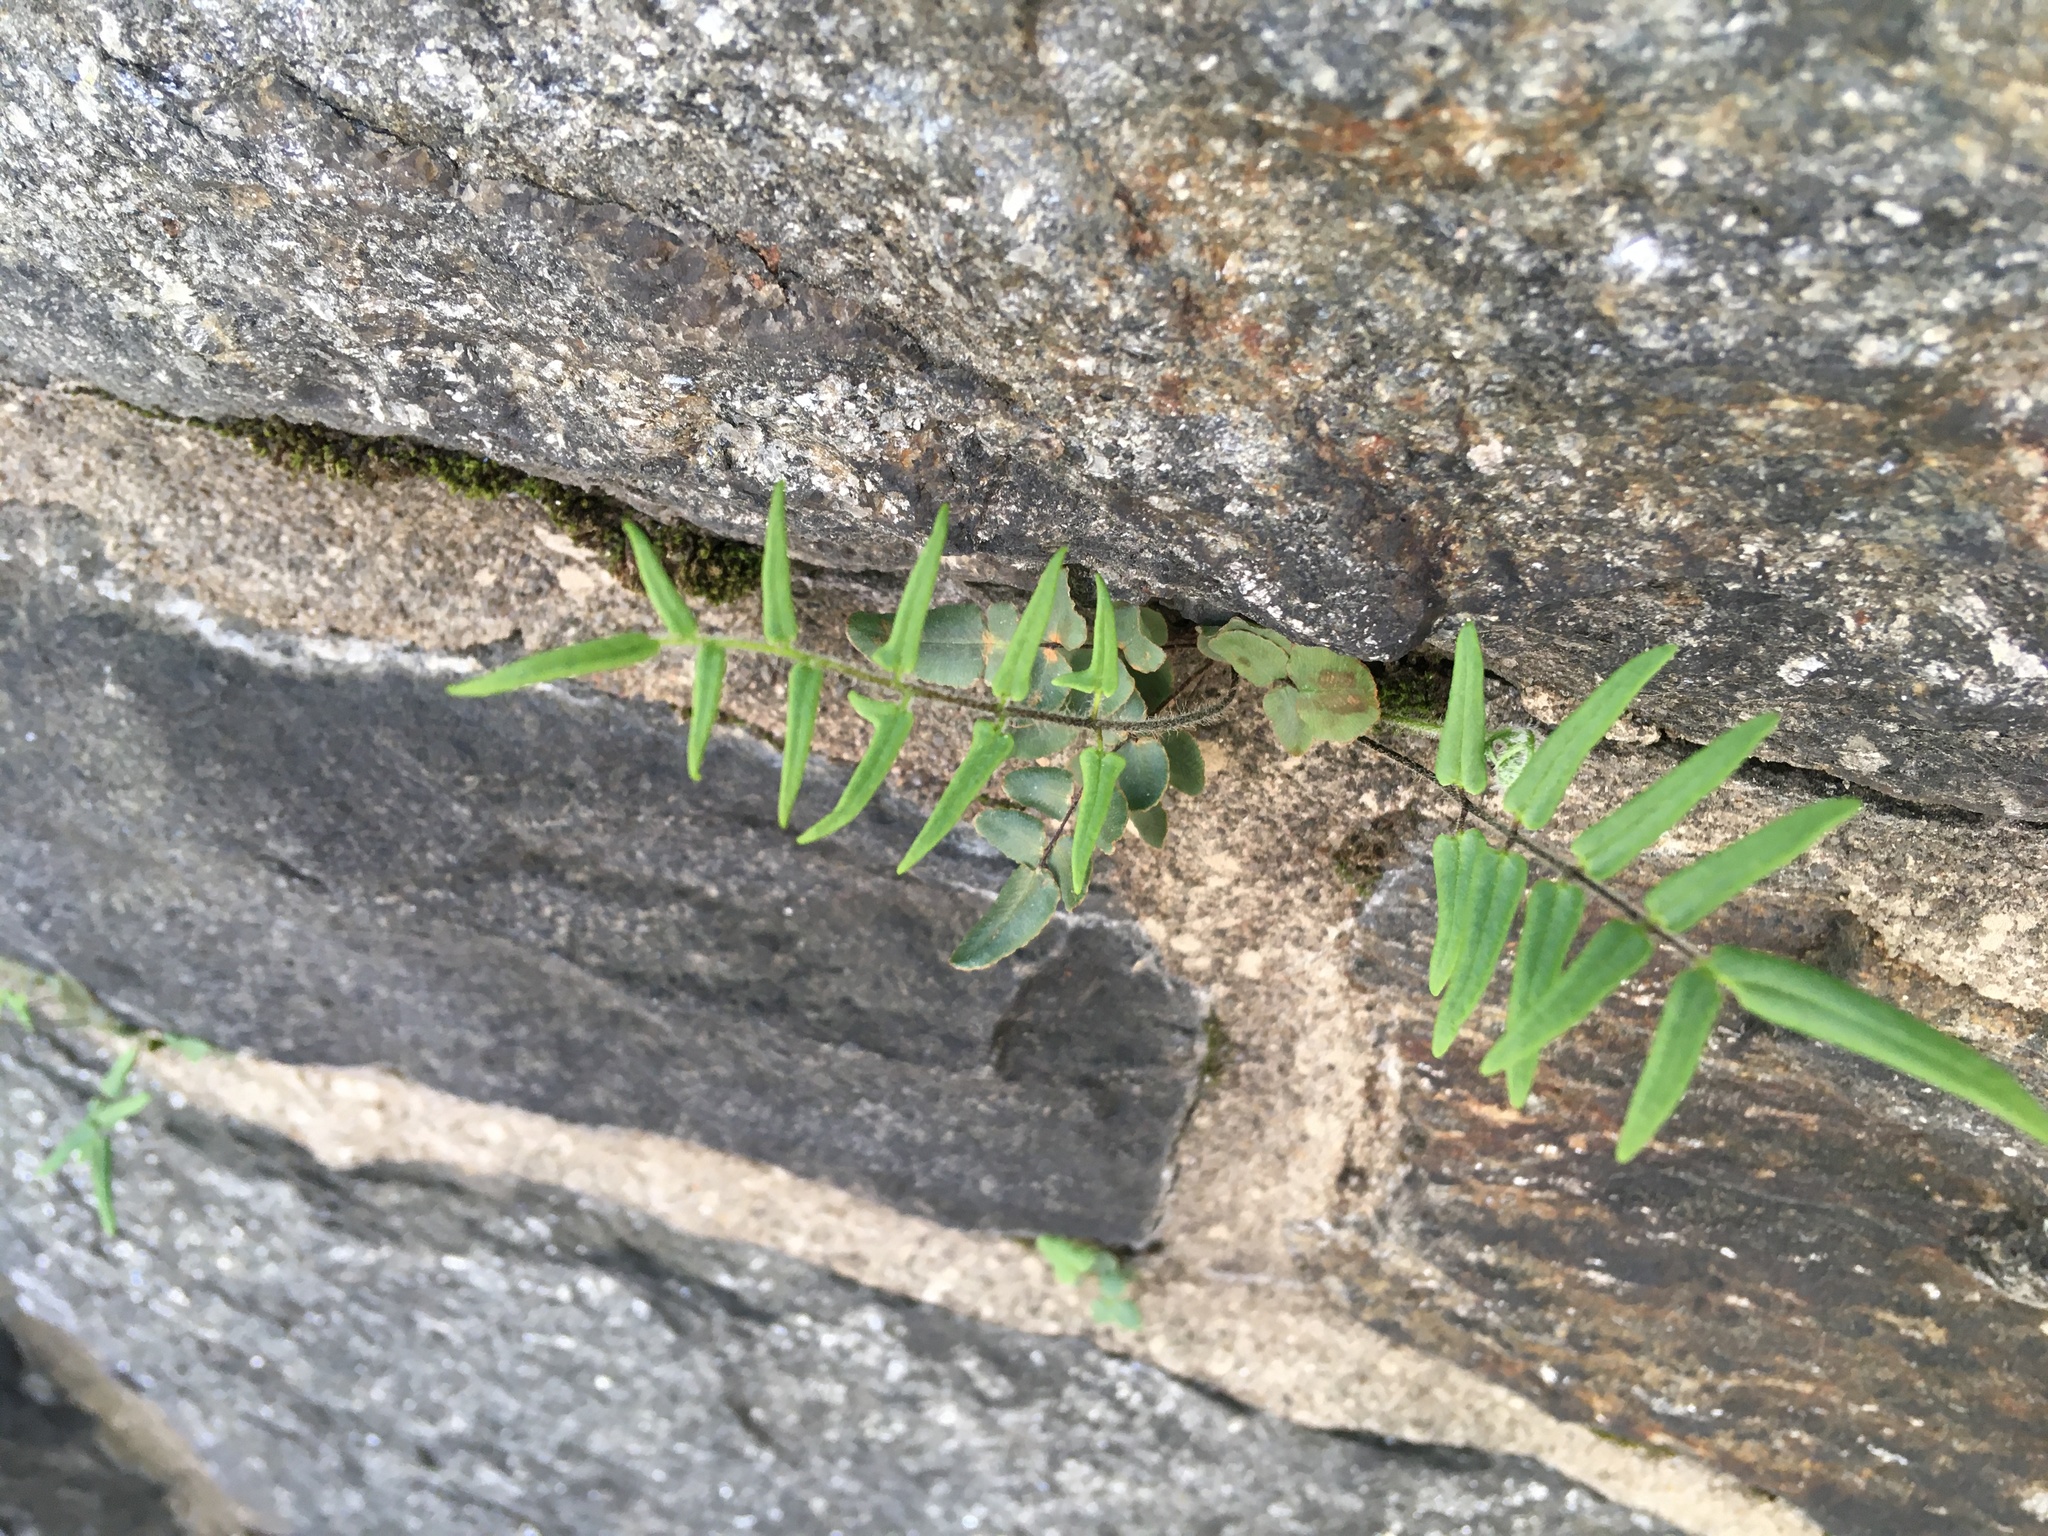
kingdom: Plantae
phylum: Tracheophyta
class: Polypodiopsida
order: Polypodiales
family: Pteridaceae
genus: Pellaea
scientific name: Pellaea atropurpurea
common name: Hairy cliffbrake
